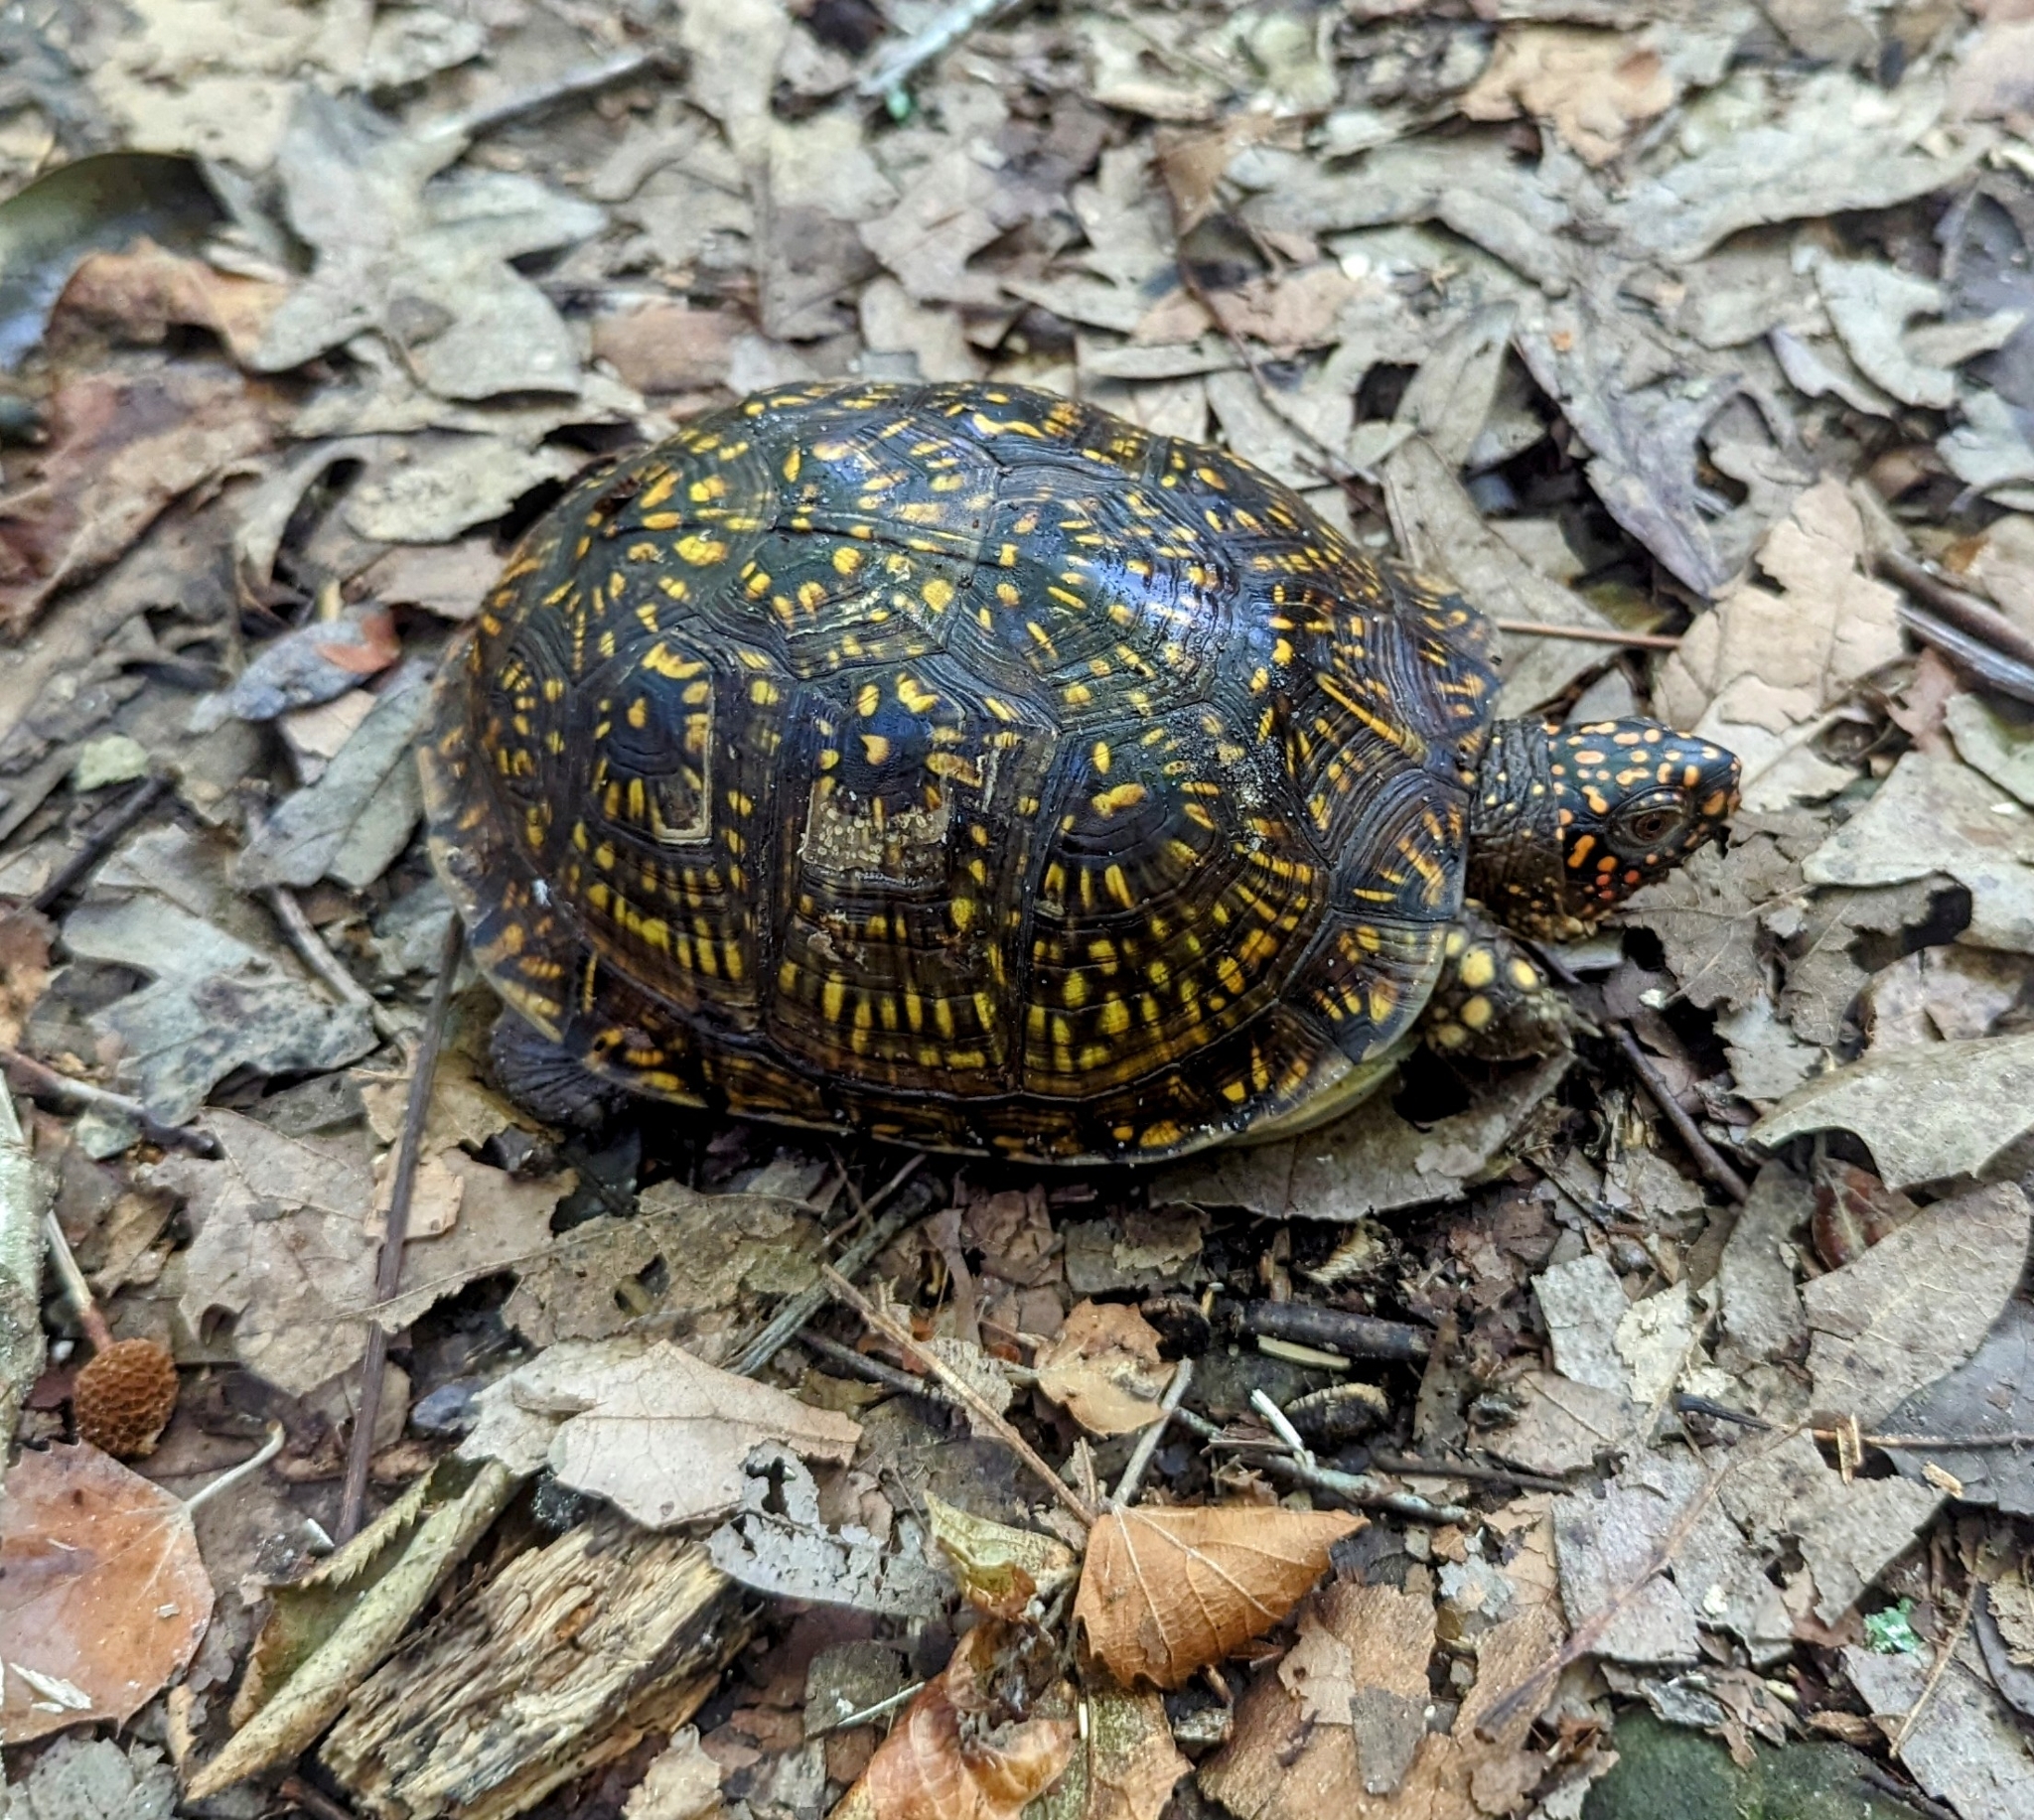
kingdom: Animalia
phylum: Chordata
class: Testudines
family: Emydidae
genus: Terrapene
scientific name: Terrapene carolina
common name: Common box turtle
